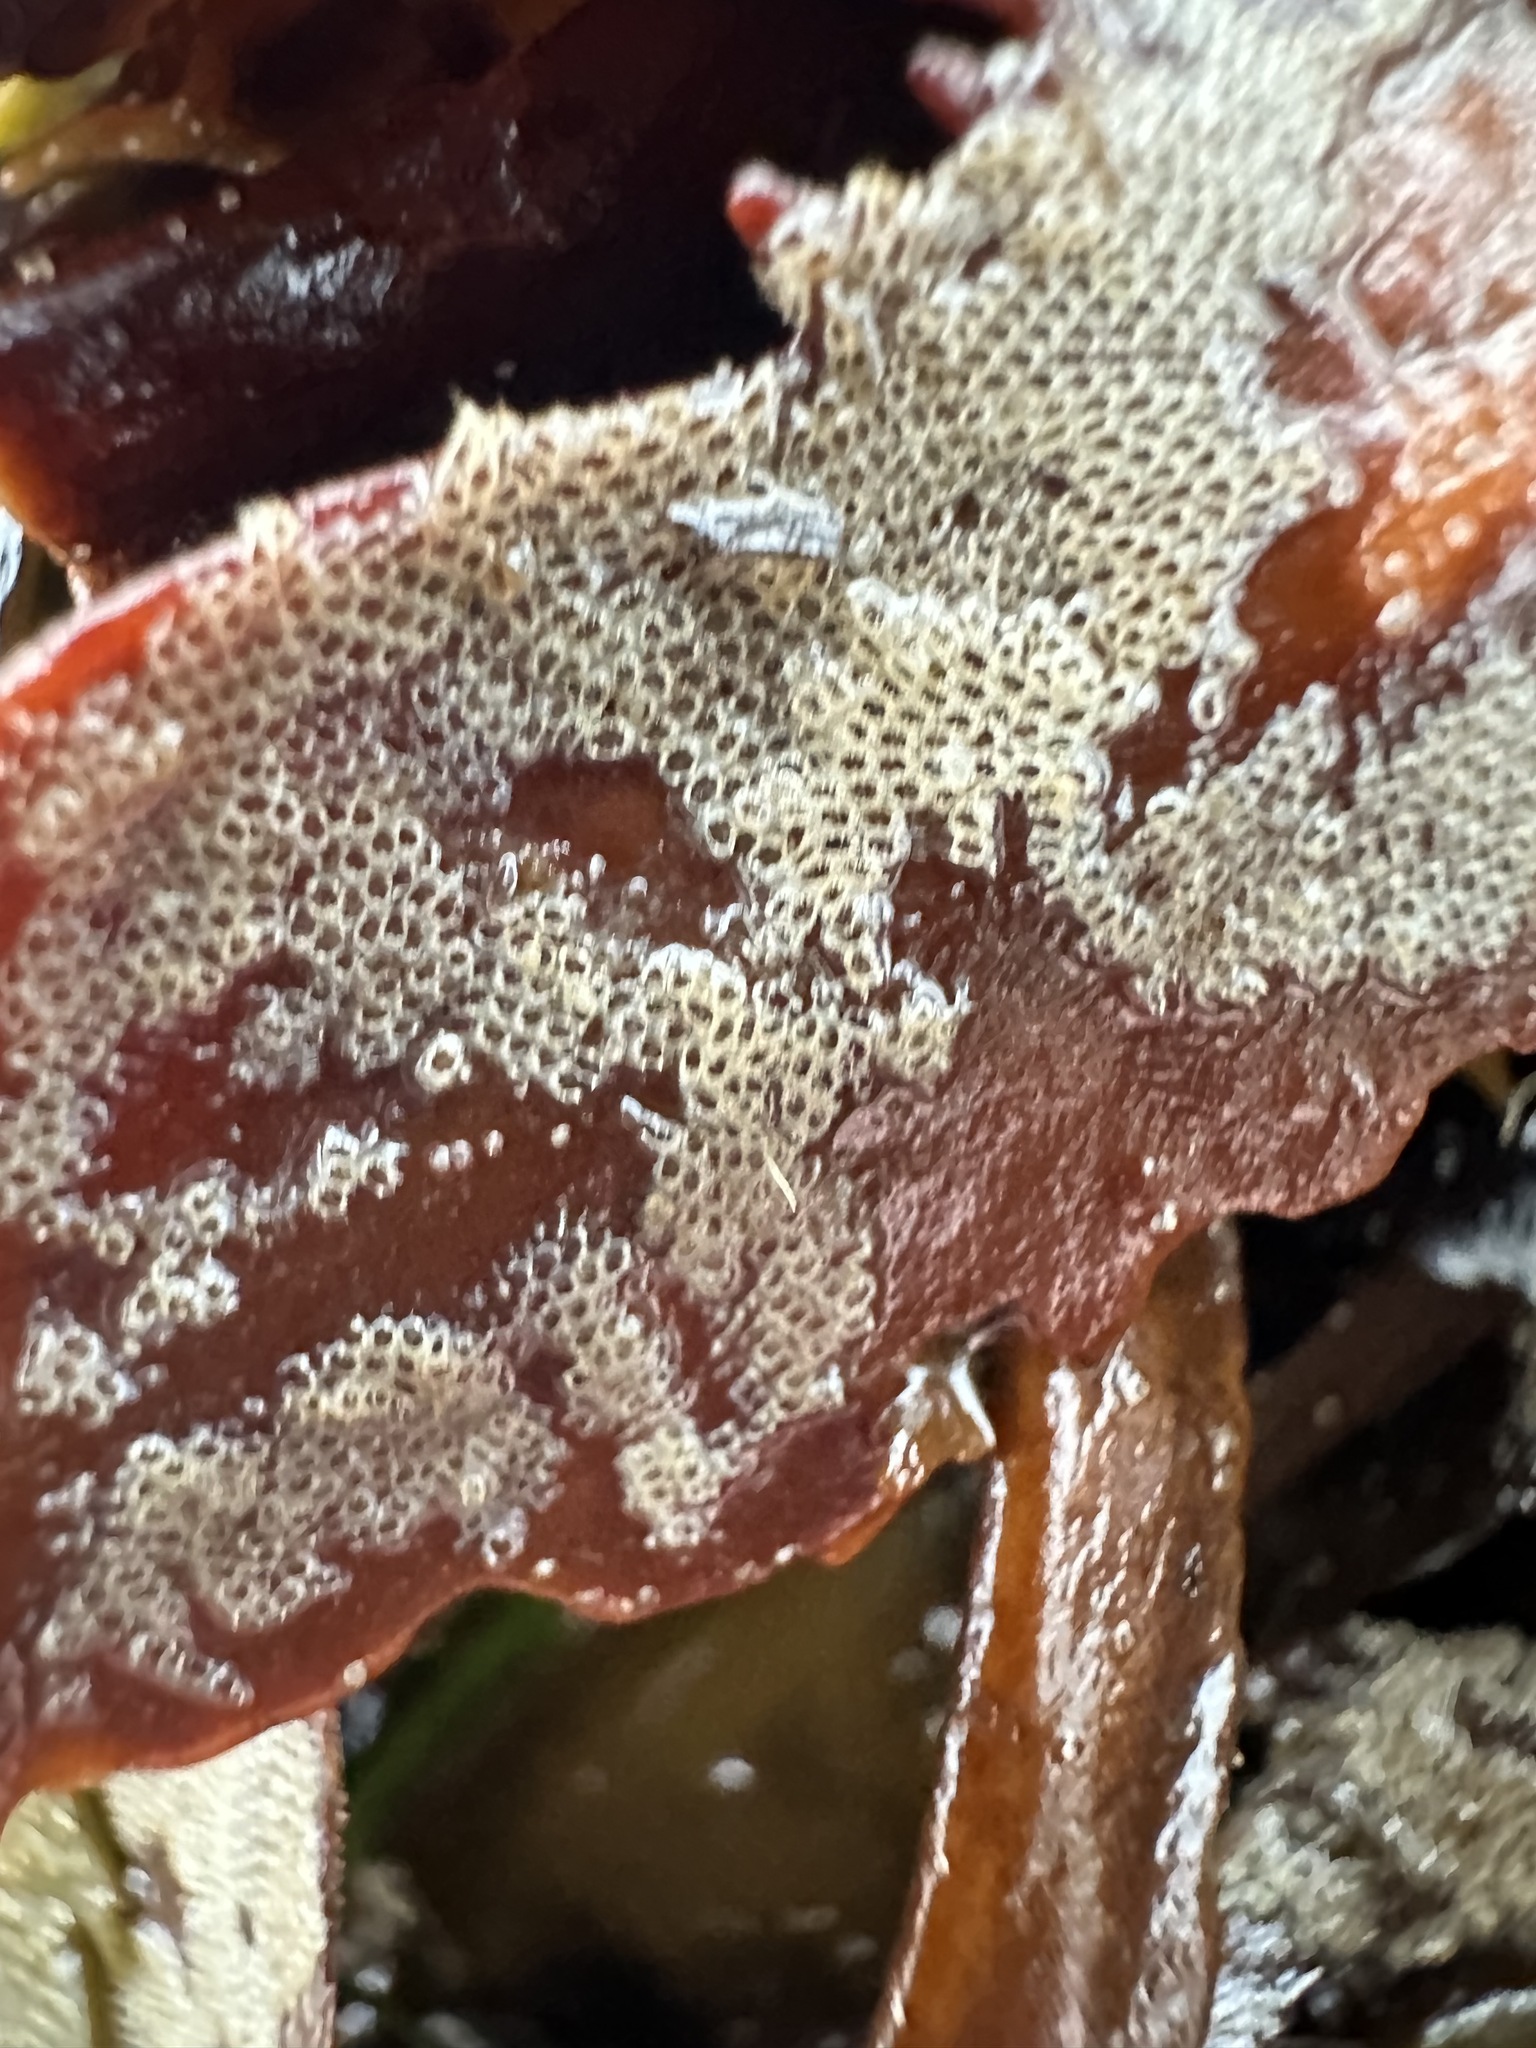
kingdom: Animalia
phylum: Bryozoa
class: Gymnolaemata
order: Cheilostomatida
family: Electridae
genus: Electra
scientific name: Electra pilosa
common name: Hairy sea-mat
